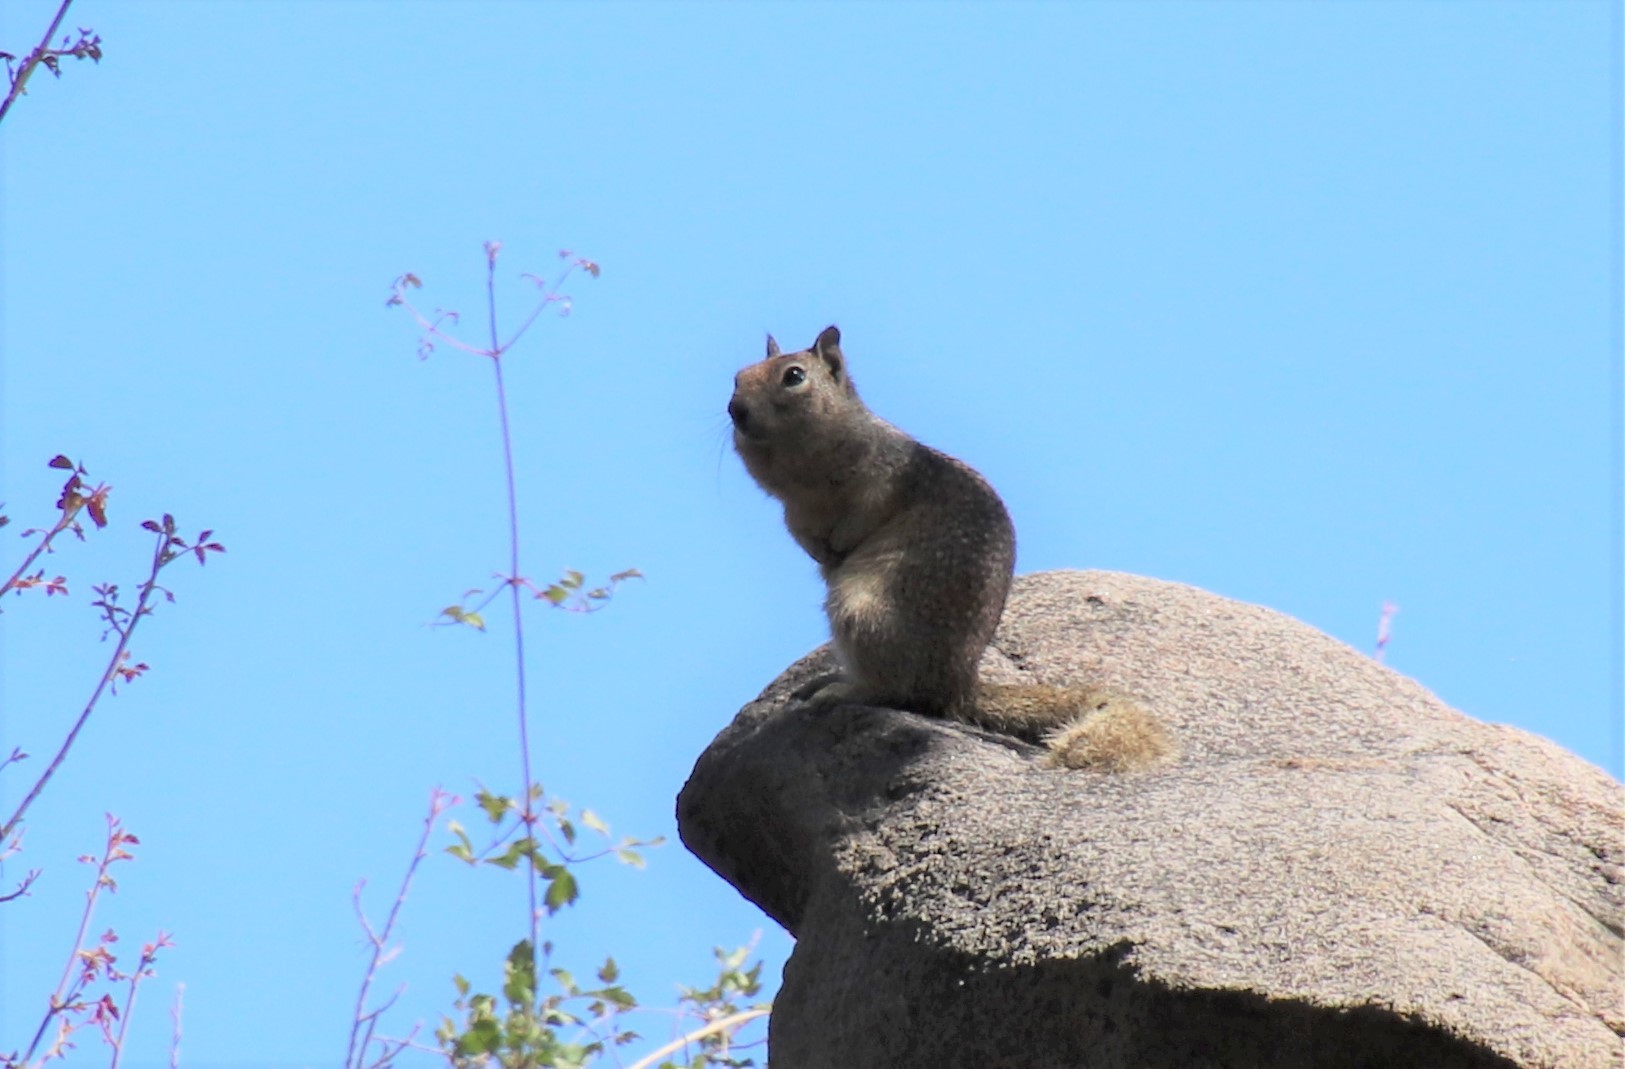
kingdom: Animalia
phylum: Chordata
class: Mammalia
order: Rodentia
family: Sciuridae
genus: Otospermophilus
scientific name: Otospermophilus beecheyi
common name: California ground squirrel
